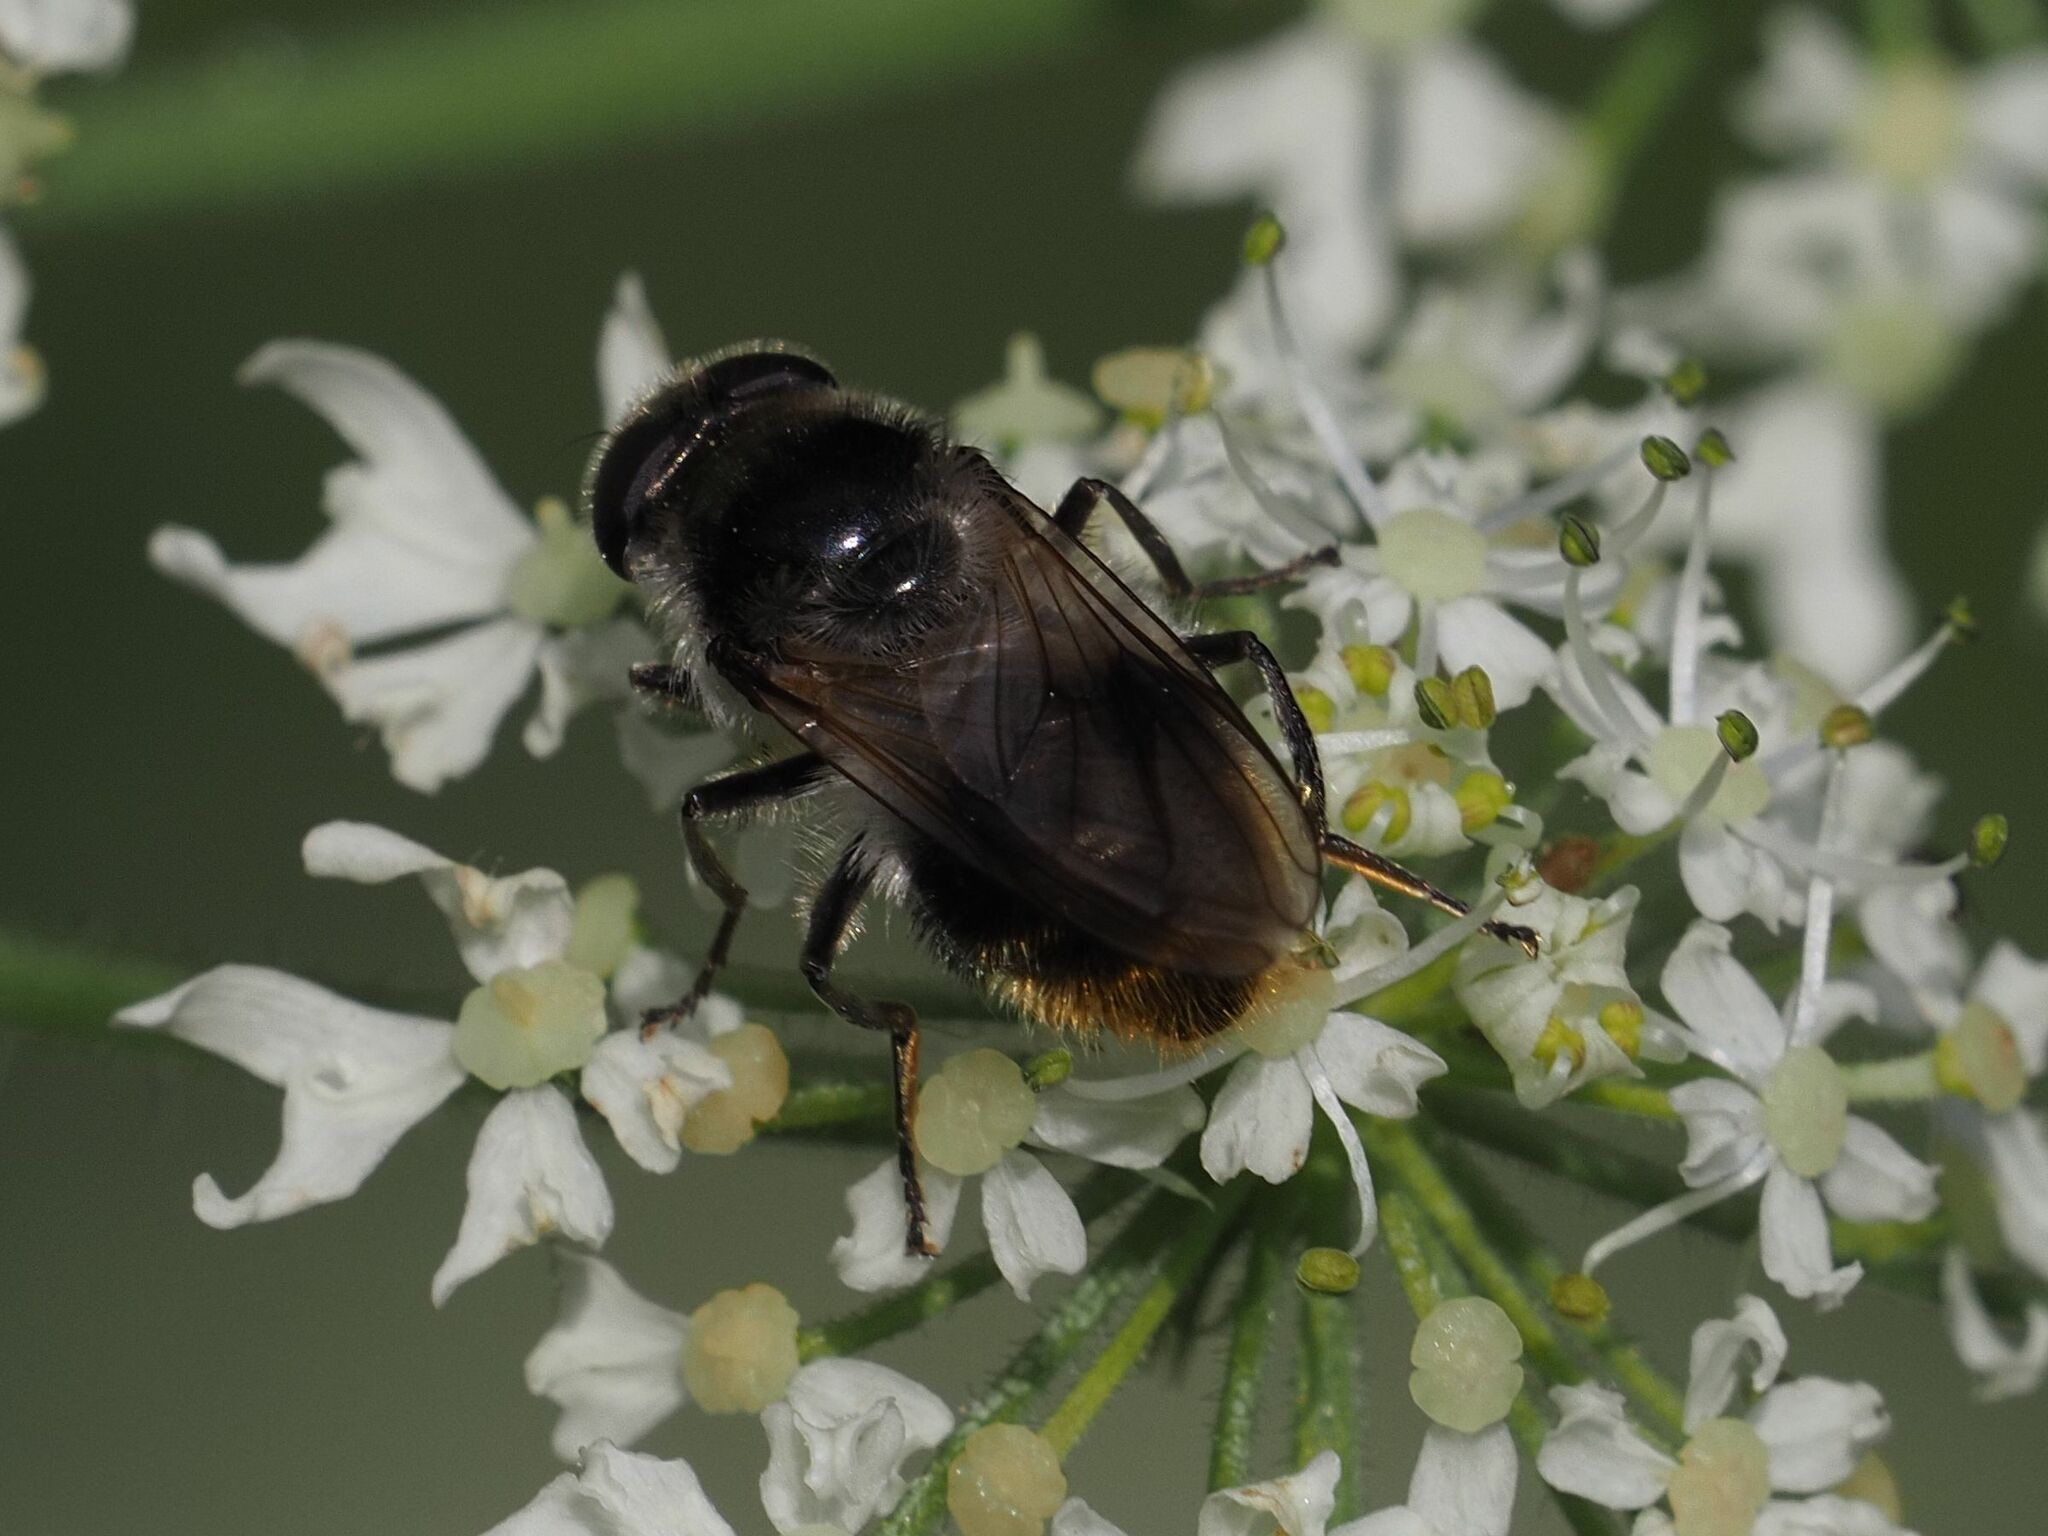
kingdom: Animalia
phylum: Arthropoda
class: Insecta
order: Diptera
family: Syrphidae
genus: Cheilosia
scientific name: Cheilosia illustrata
